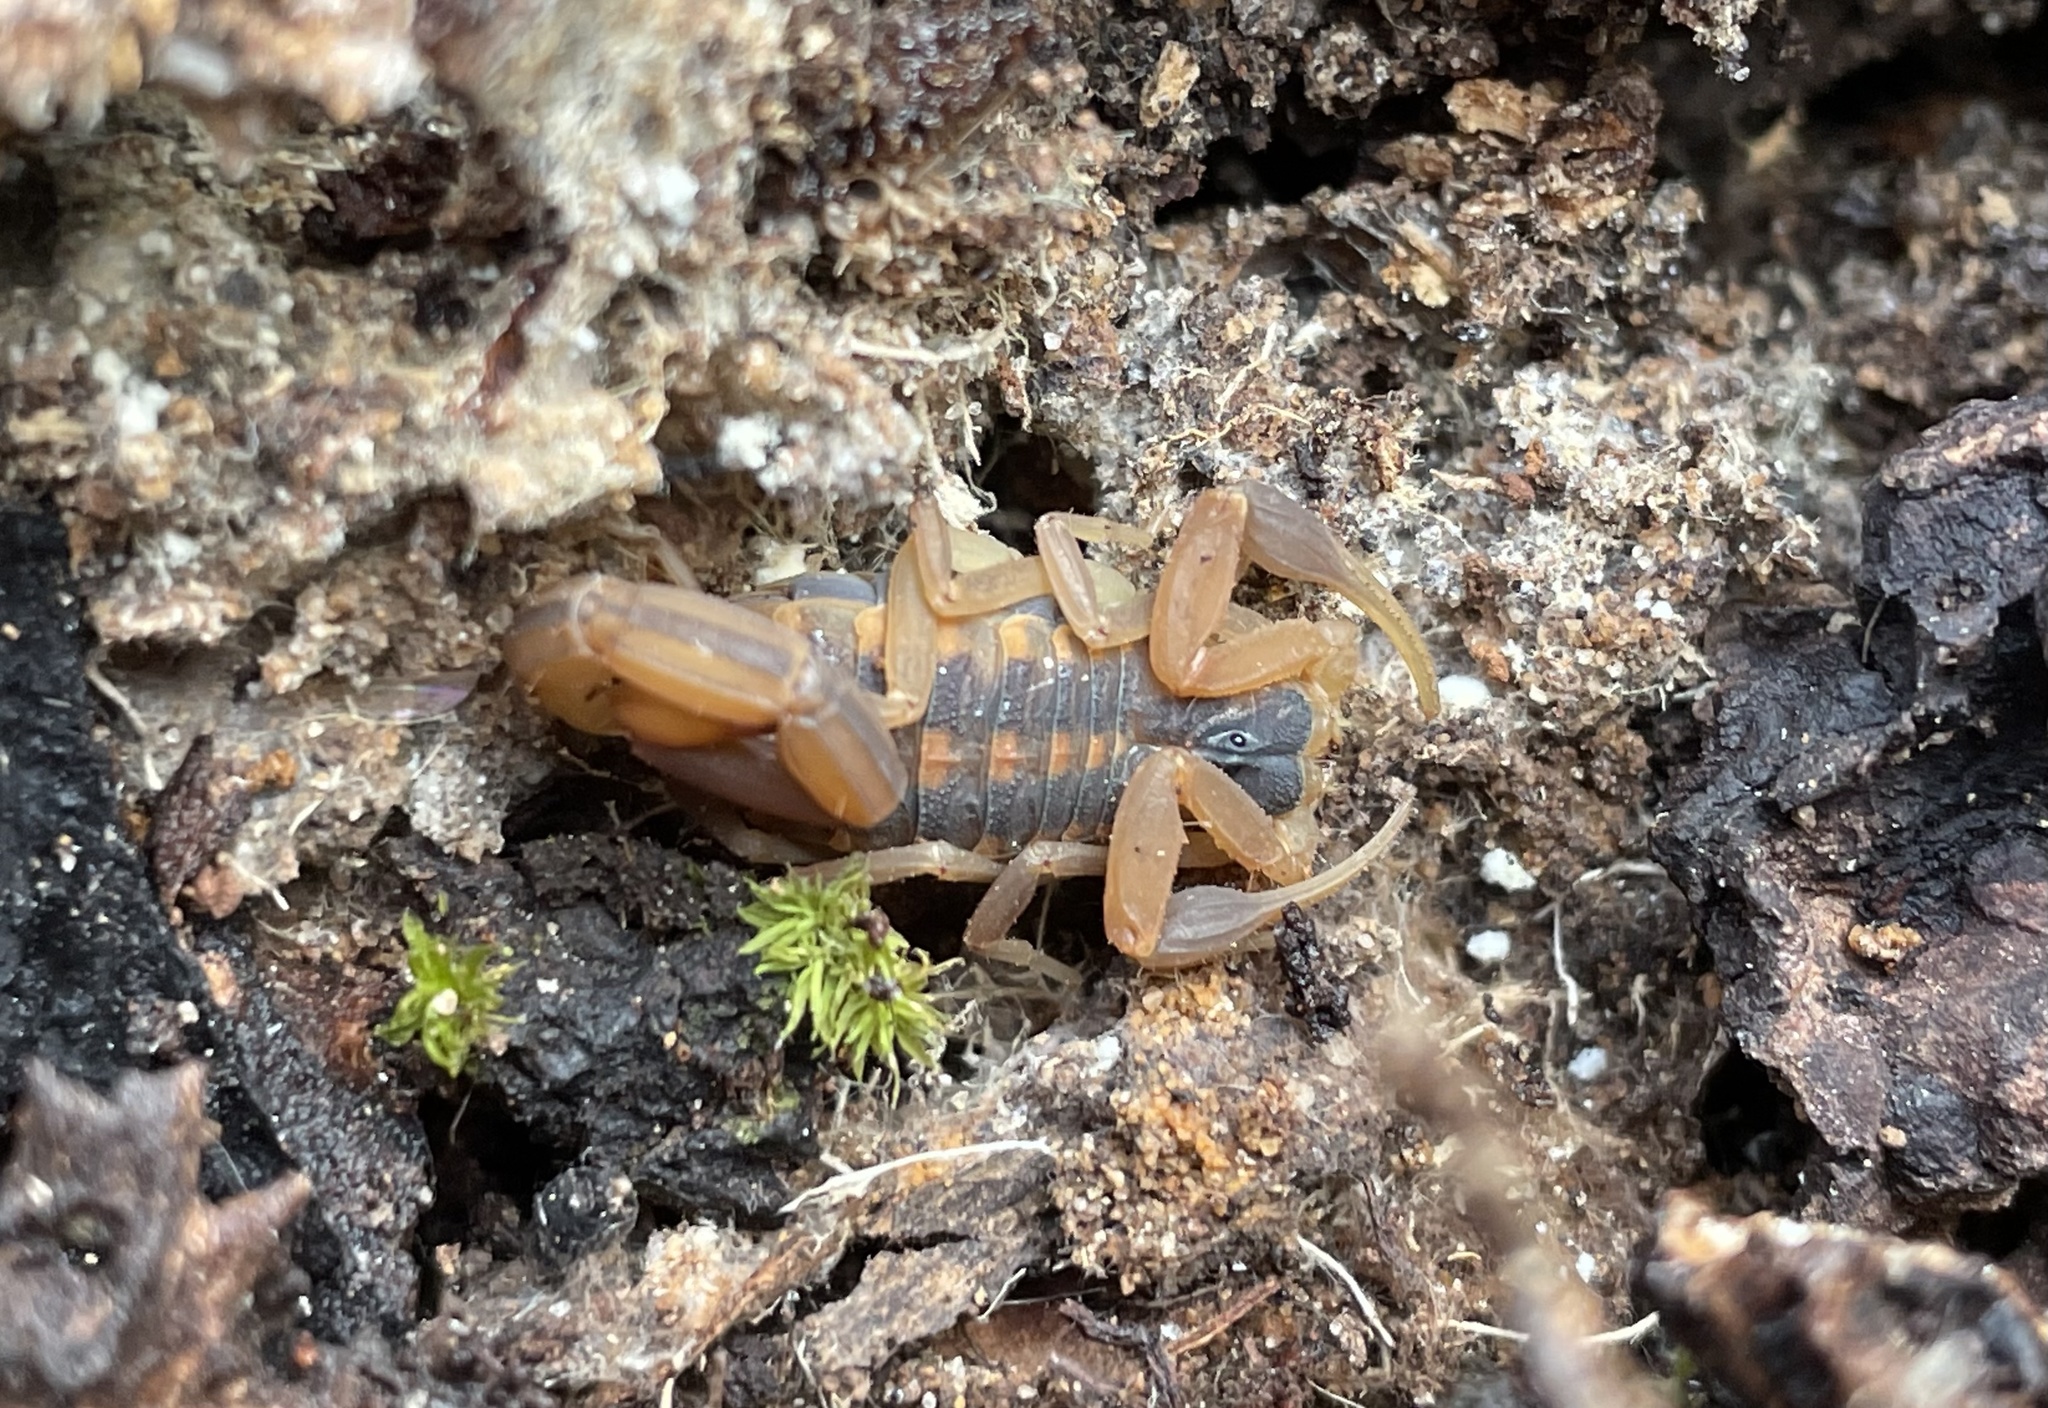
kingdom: Animalia
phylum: Arthropoda
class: Arachnida
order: Scorpiones
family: Buthidae
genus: Centruroides
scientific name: Centruroides vittatus
